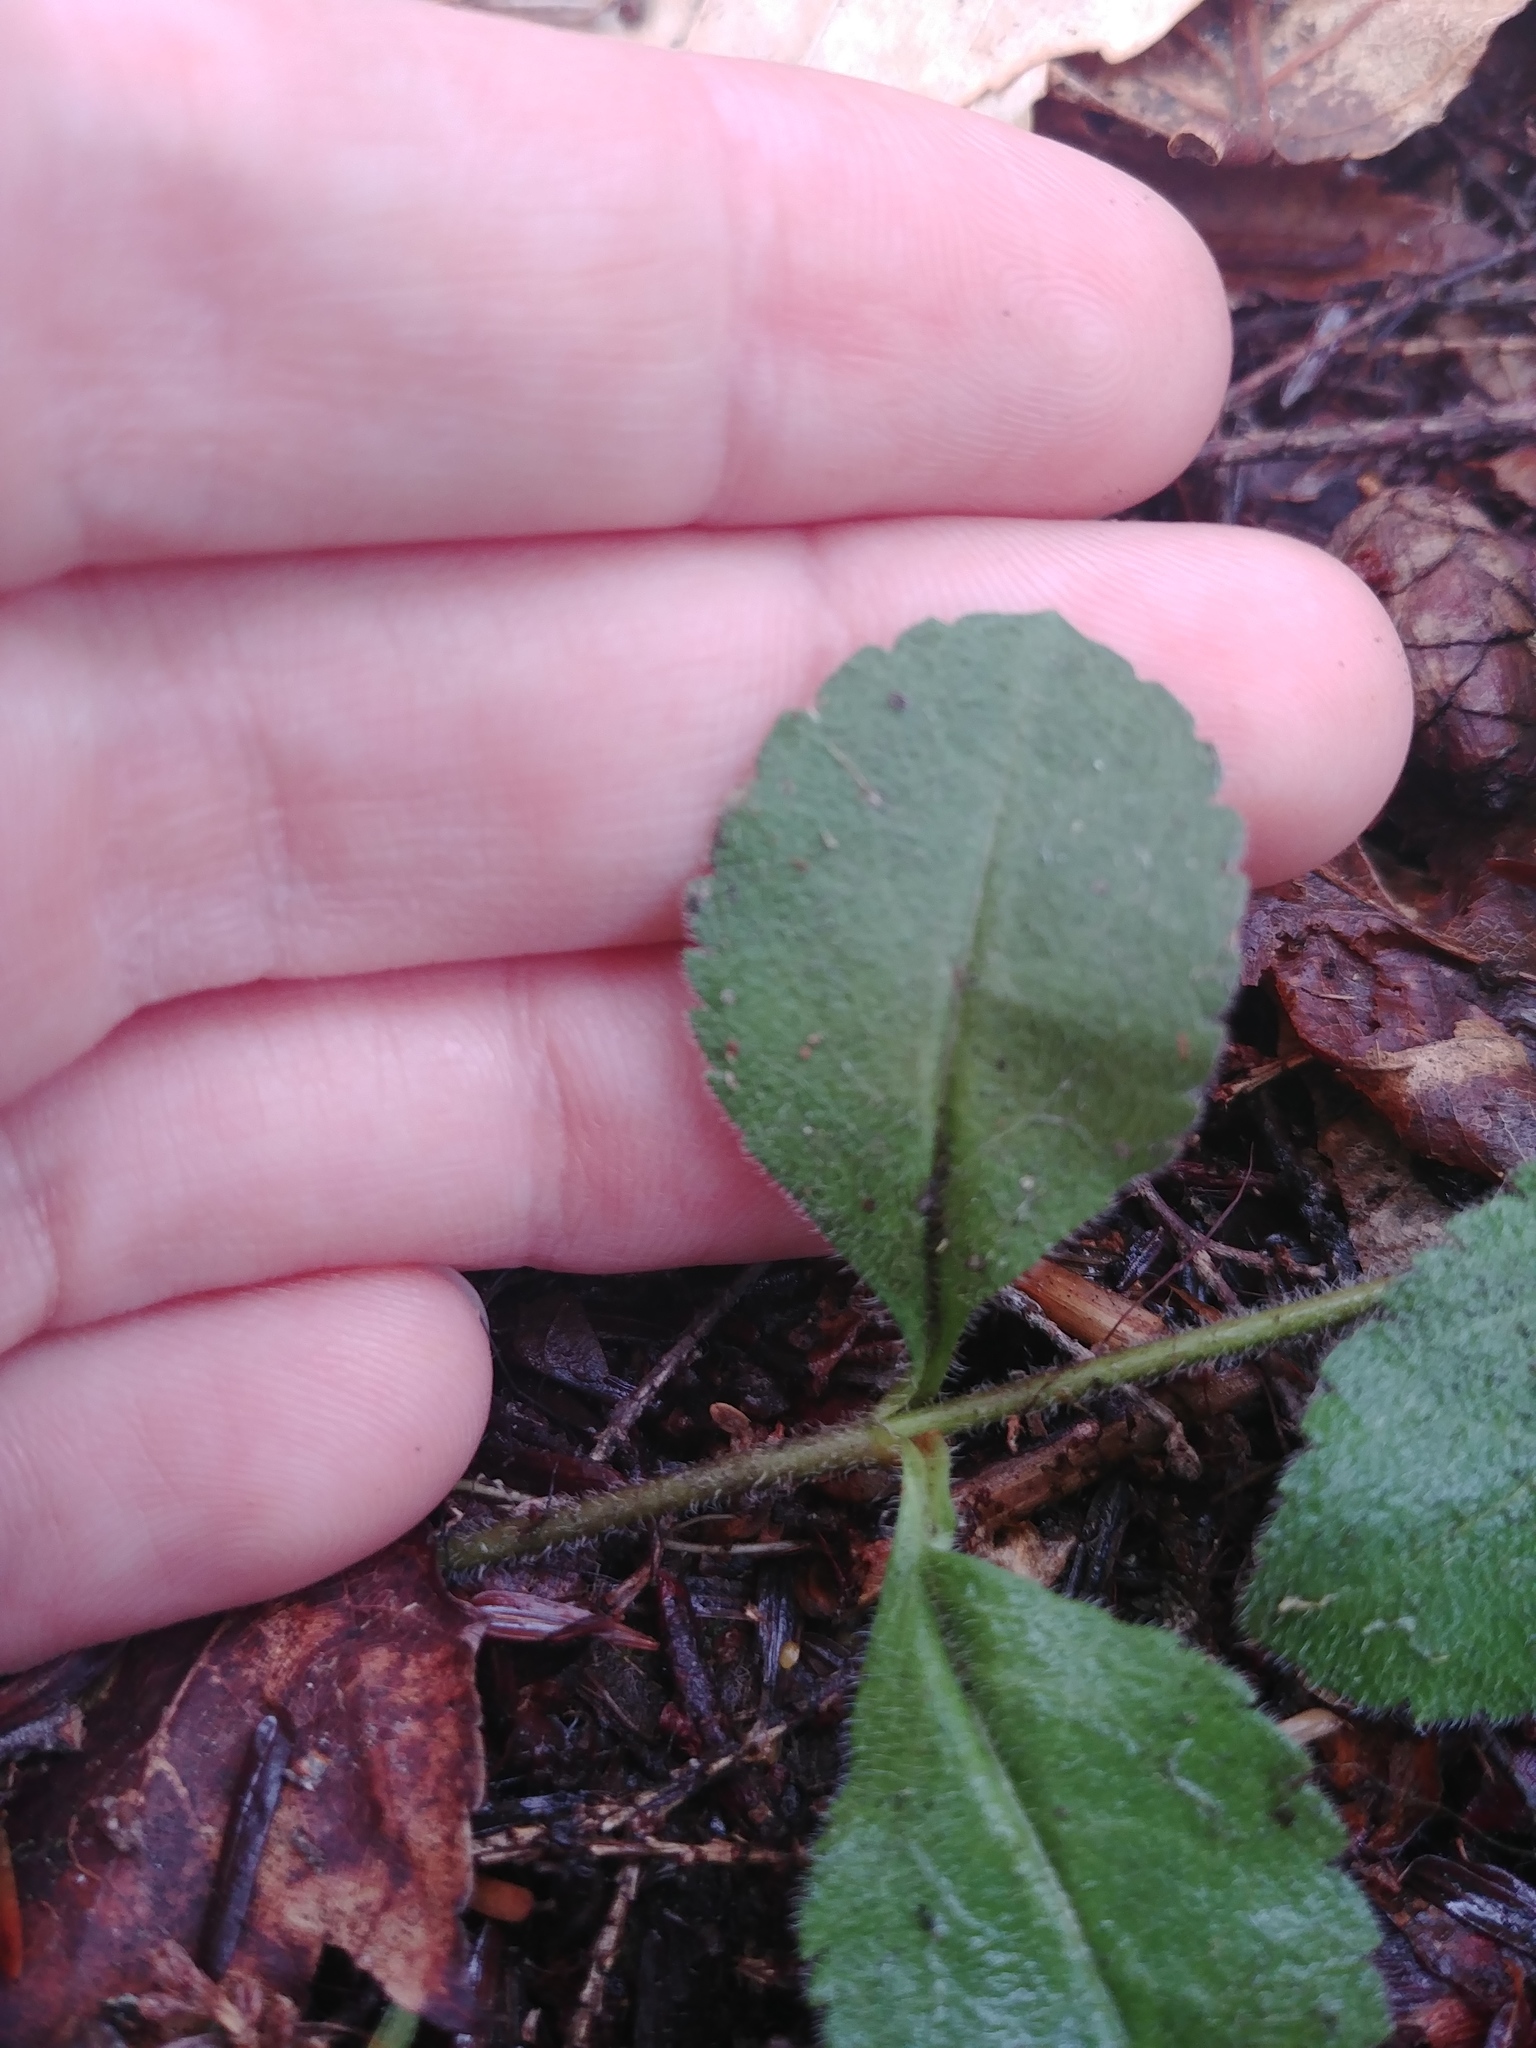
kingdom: Plantae
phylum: Tracheophyta
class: Magnoliopsida
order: Lamiales
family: Plantaginaceae
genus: Veronica
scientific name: Veronica officinalis
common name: Common speedwell
